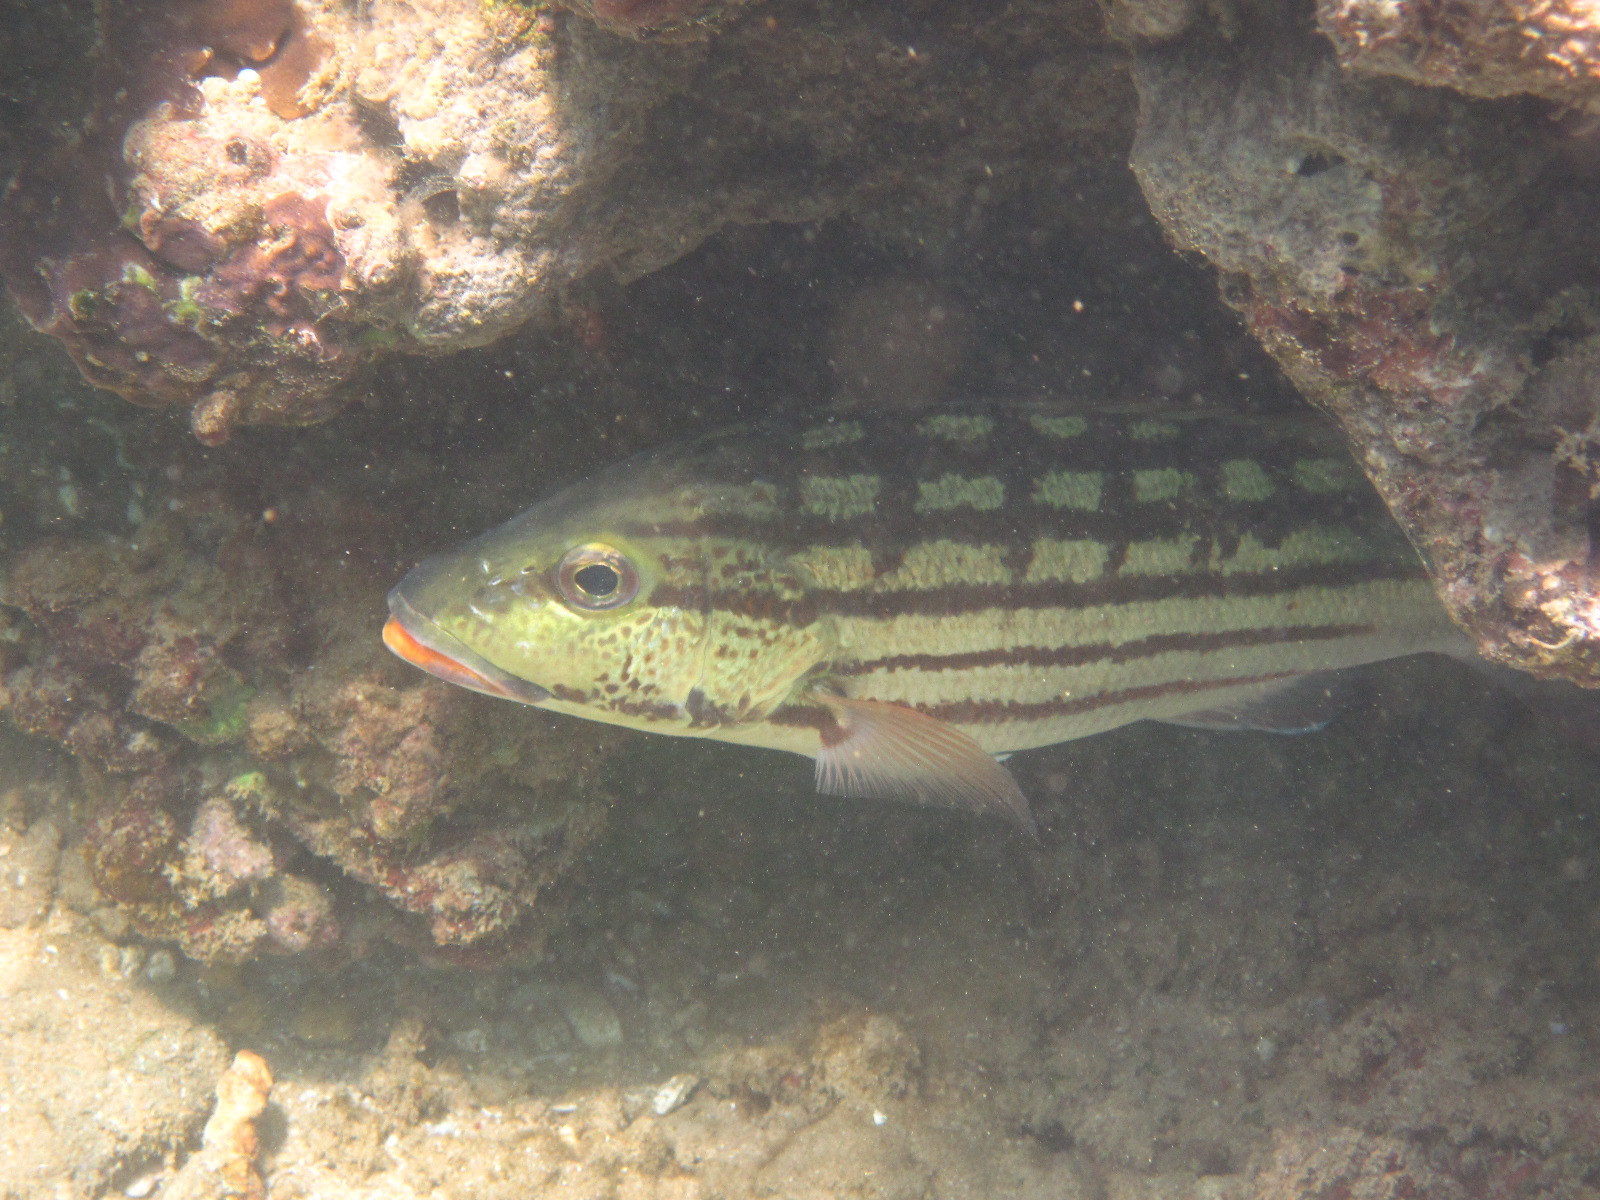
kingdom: Animalia
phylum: Chordata
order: Perciformes
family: Lutjanidae
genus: Lutjanus
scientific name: Lutjanus decussatus
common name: Checkered snapper
